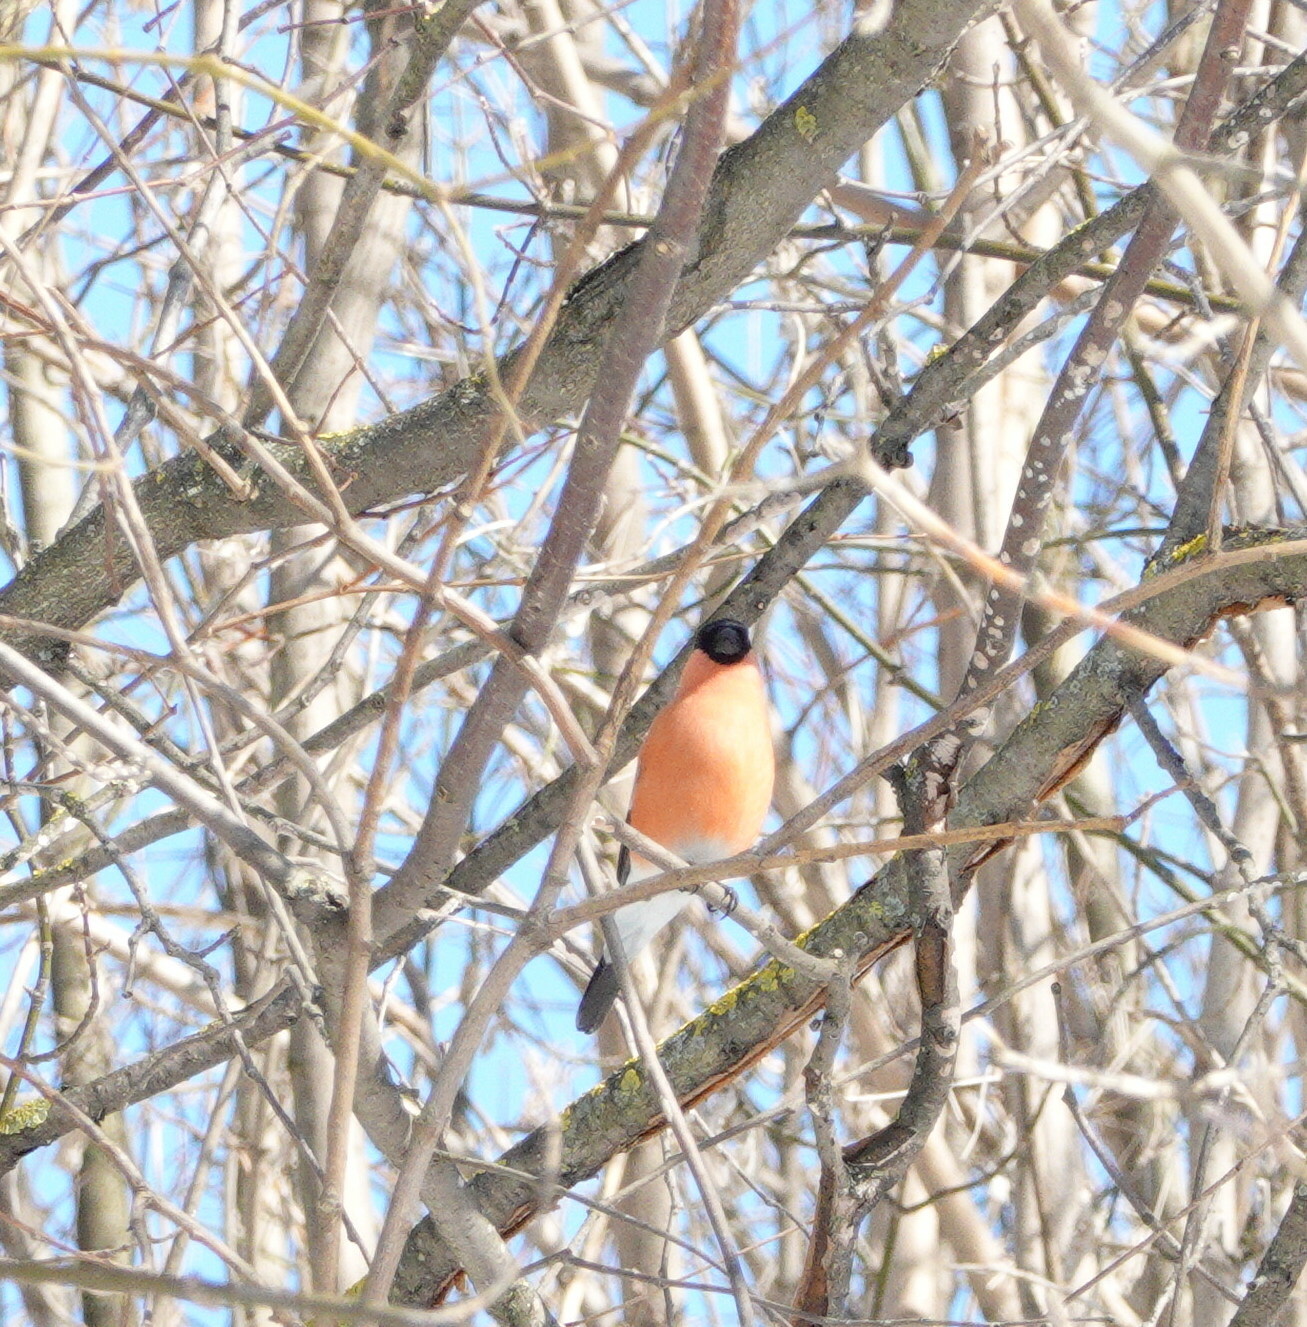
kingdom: Animalia
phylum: Chordata
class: Aves
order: Passeriformes
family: Fringillidae
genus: Pyrrhula
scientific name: Pyrrhula pyrrhula
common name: Eurasian bullfinch
